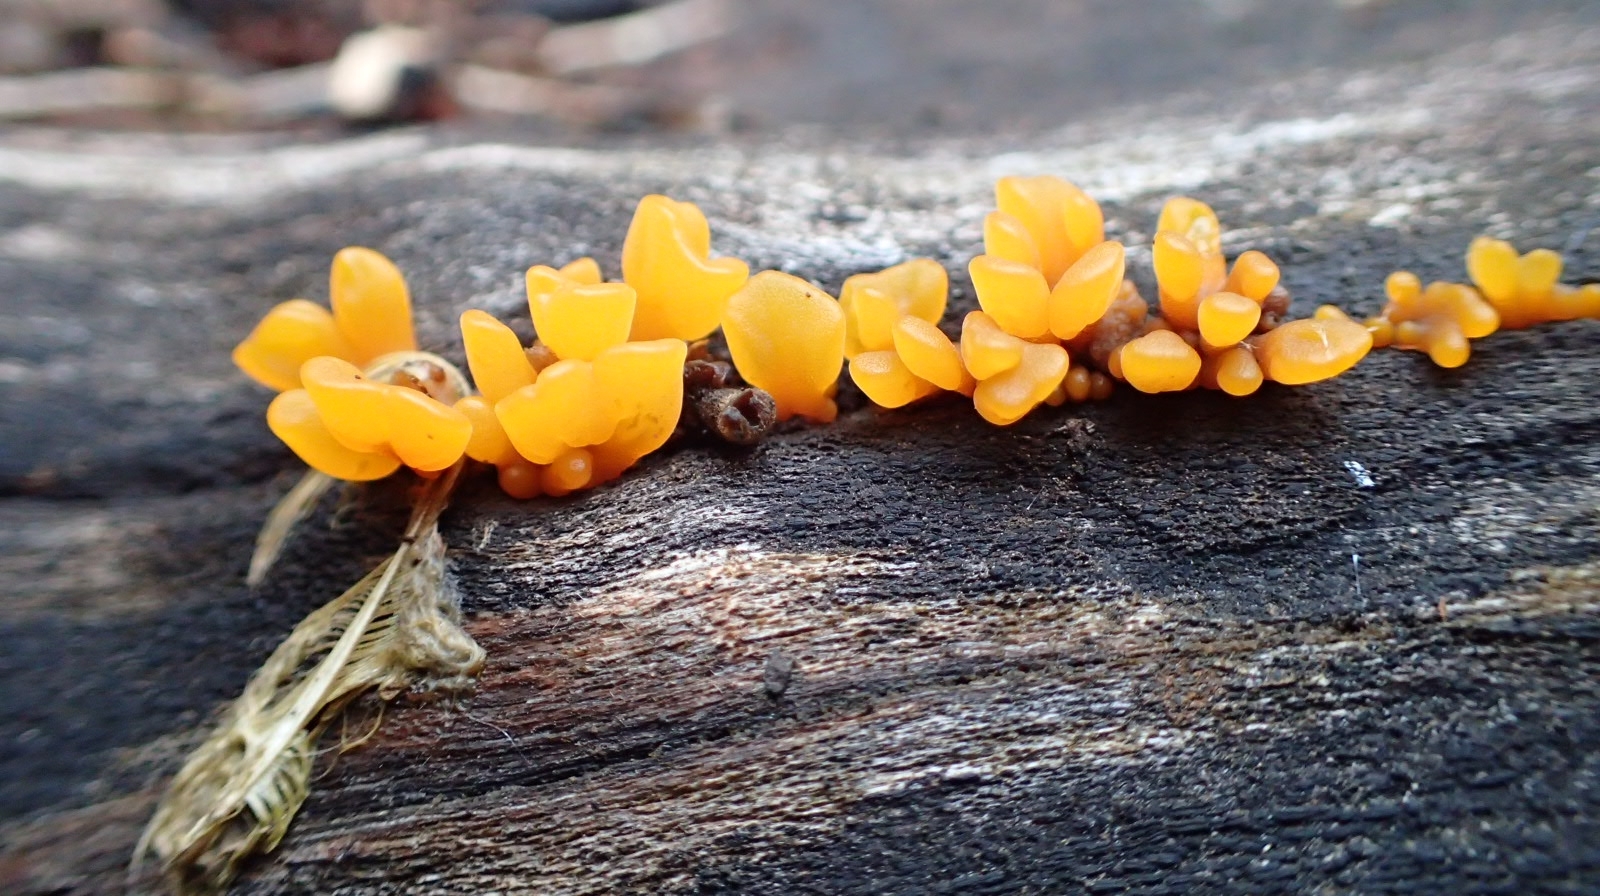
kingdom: Fungi
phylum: Basidiomycota
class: Dacrymycetes
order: Dacrymycetales
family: Dacrymycetaceae
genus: Dacrymyces
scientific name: Dacrymyces spathularius
